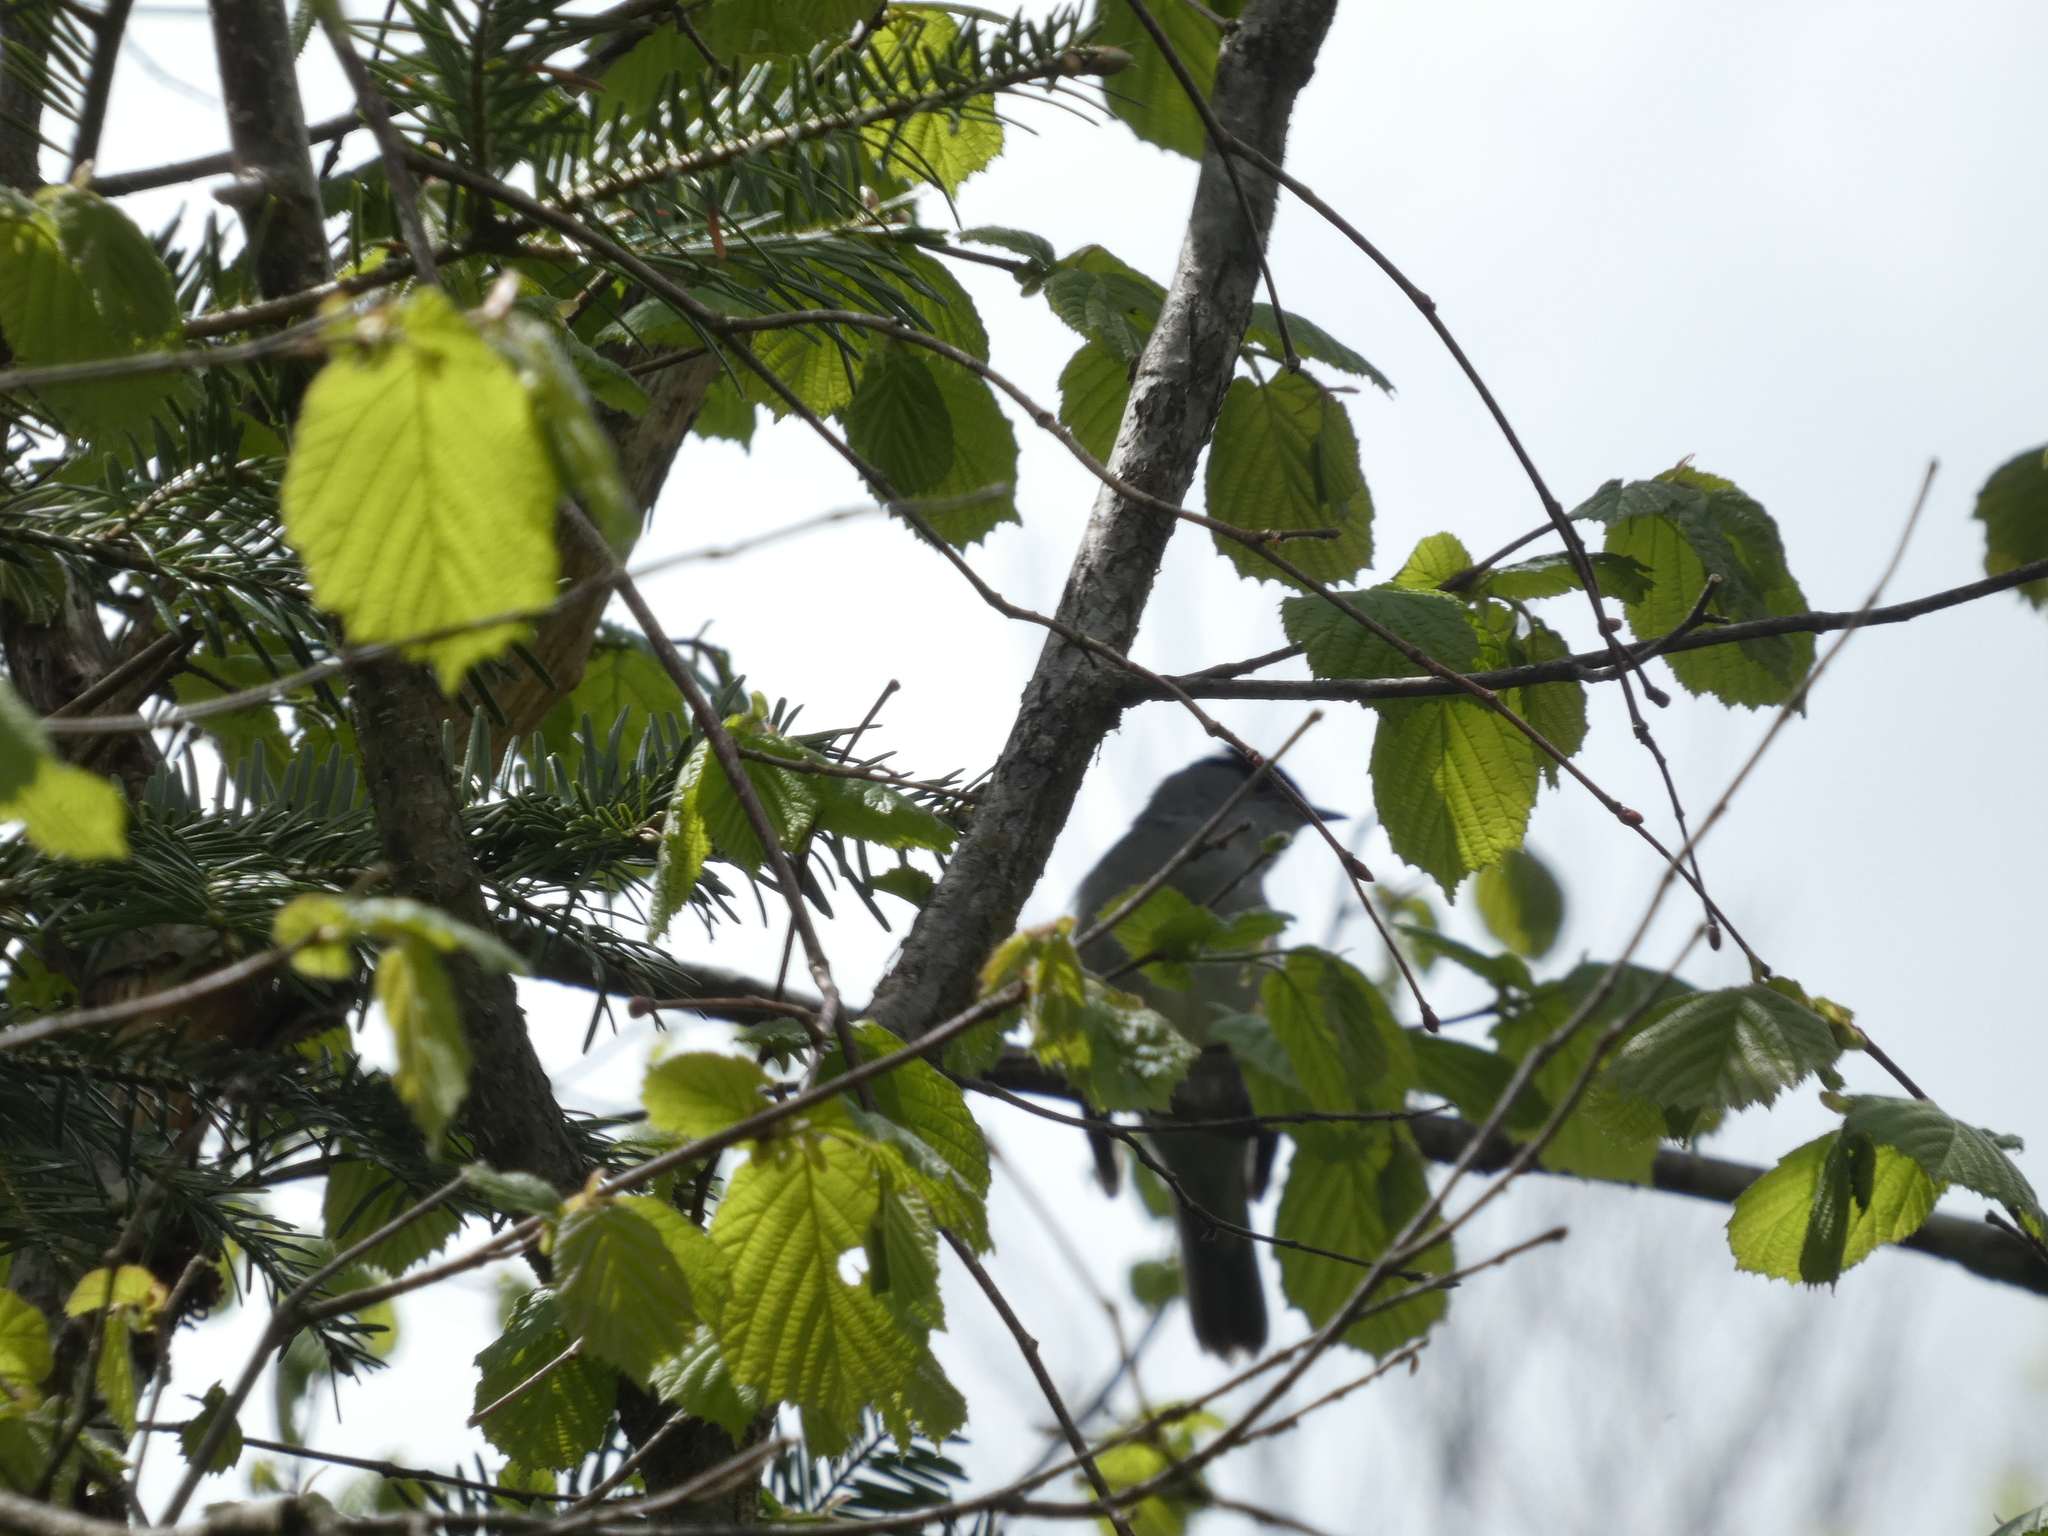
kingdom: Animalia
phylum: Chordata
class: Aves
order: Passeriformes
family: Sylviidae
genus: Sylvia
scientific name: Sylvia atricapilla
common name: Eurasian blackcap
